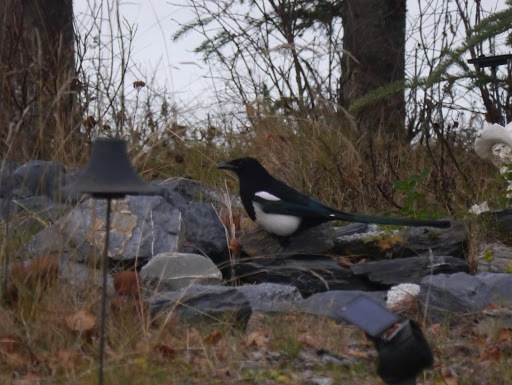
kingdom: Animalia
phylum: Chordata
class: Aves
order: Passeriformes
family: Corvidae
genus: Pica
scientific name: Pica hudsonia
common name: Black-billed magpie
